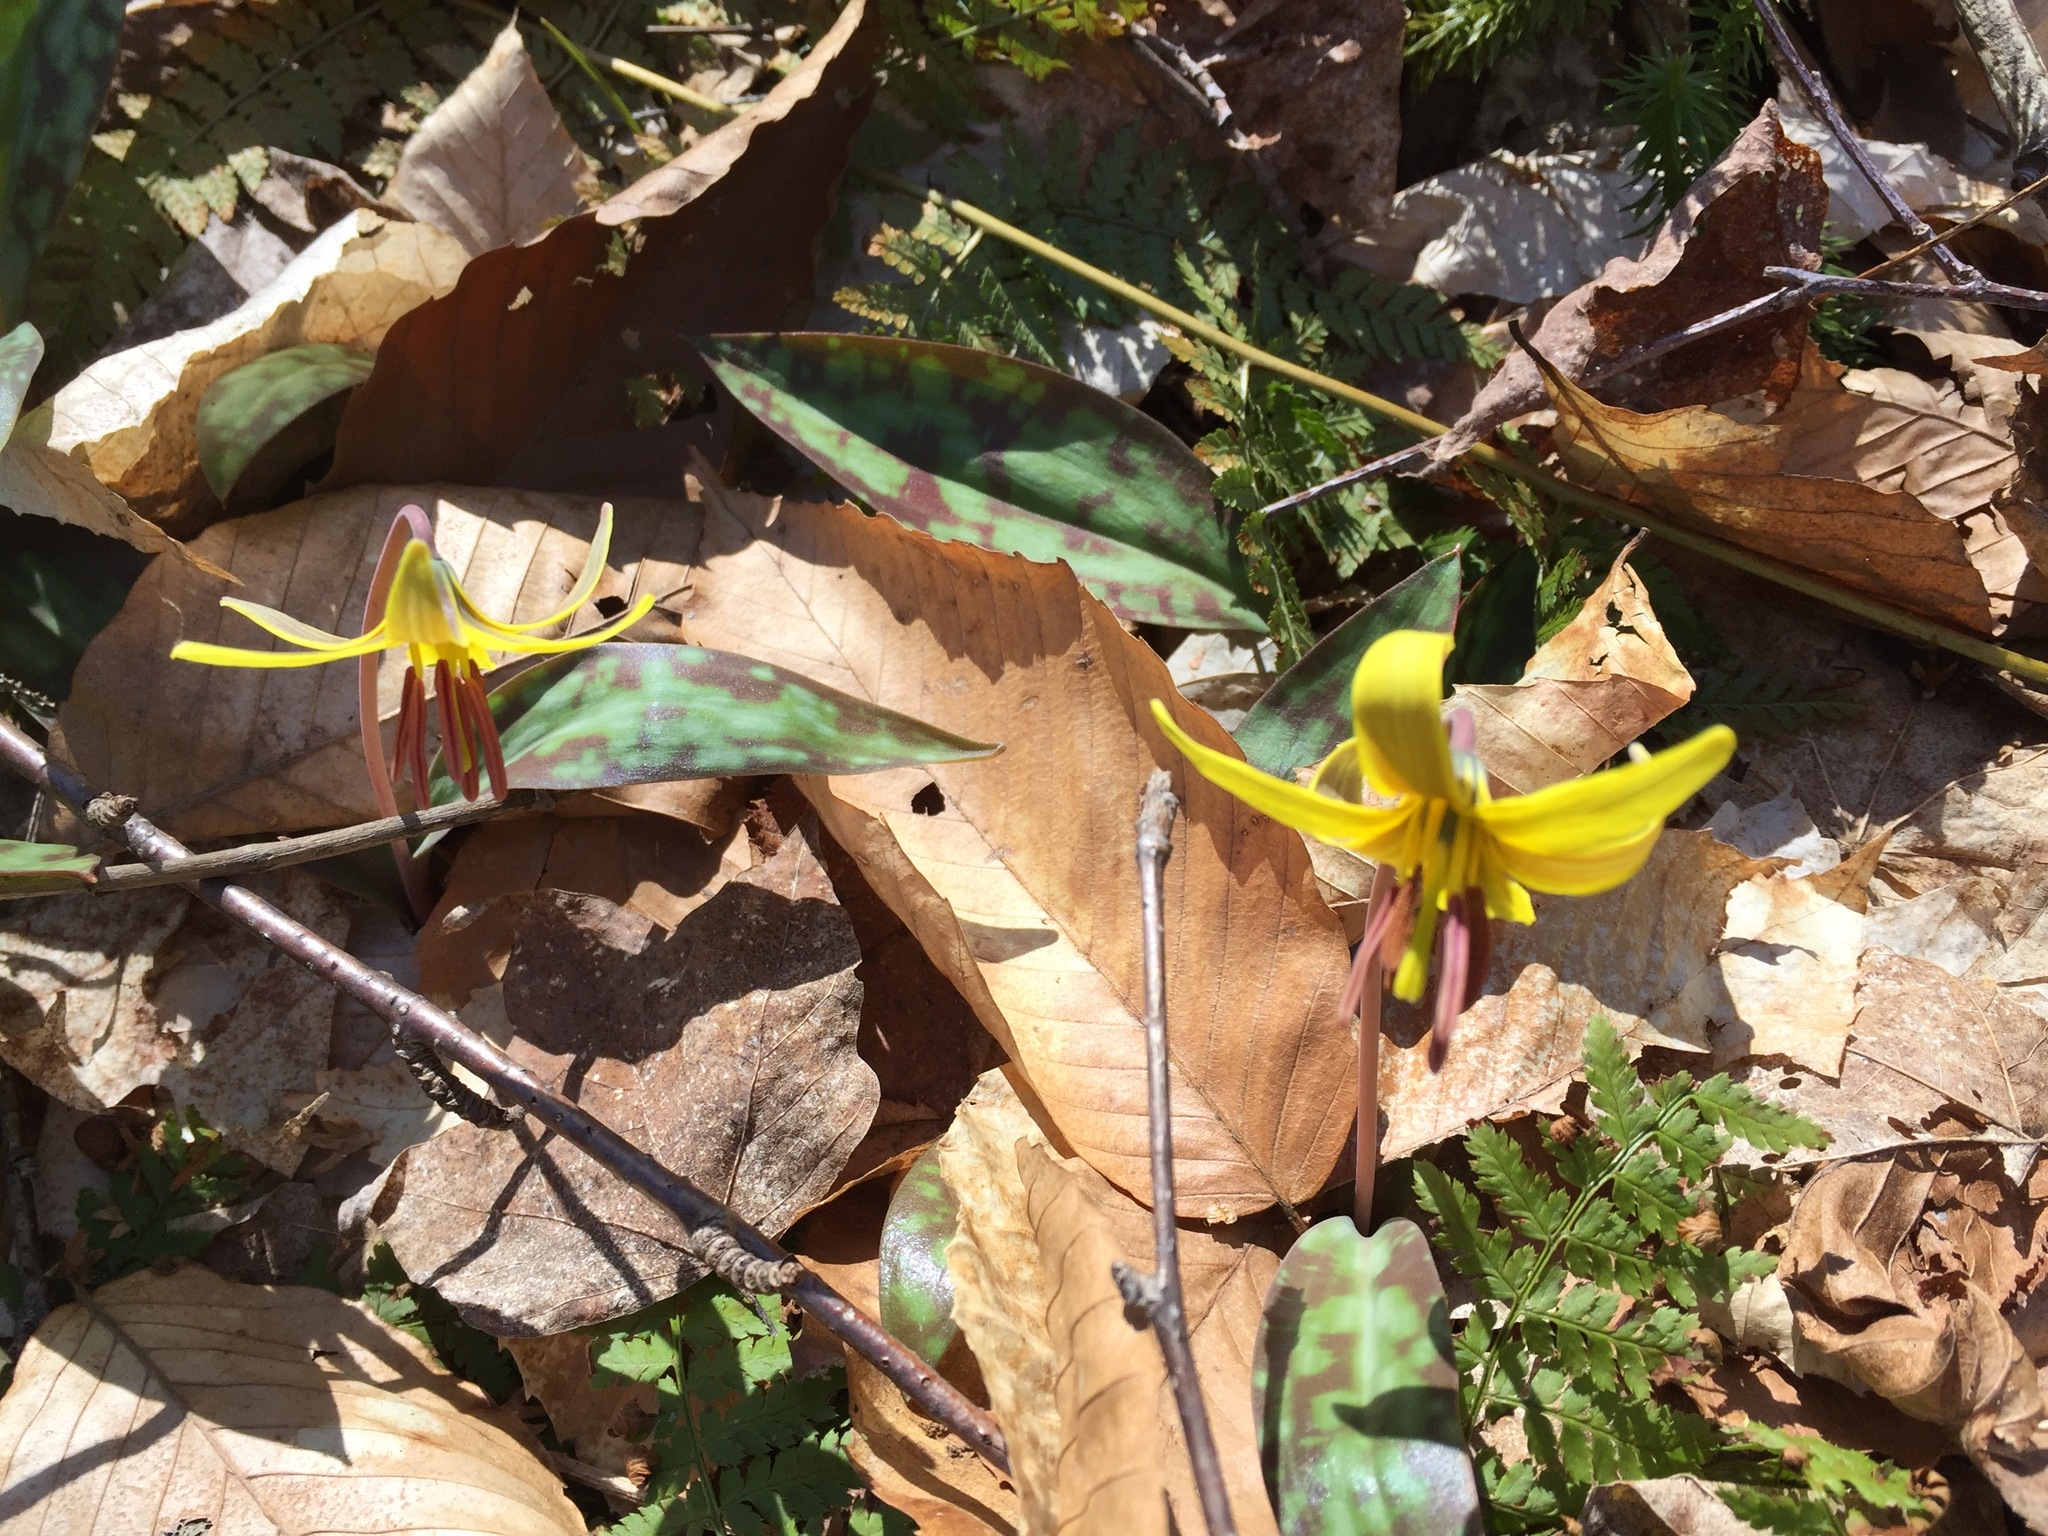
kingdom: Plantae
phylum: Tracheophyta
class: Liliopsida
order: Liliales
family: Liliaceae
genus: Erythronium
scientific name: Erythronium americanum
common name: Yellow adder's-tongue
